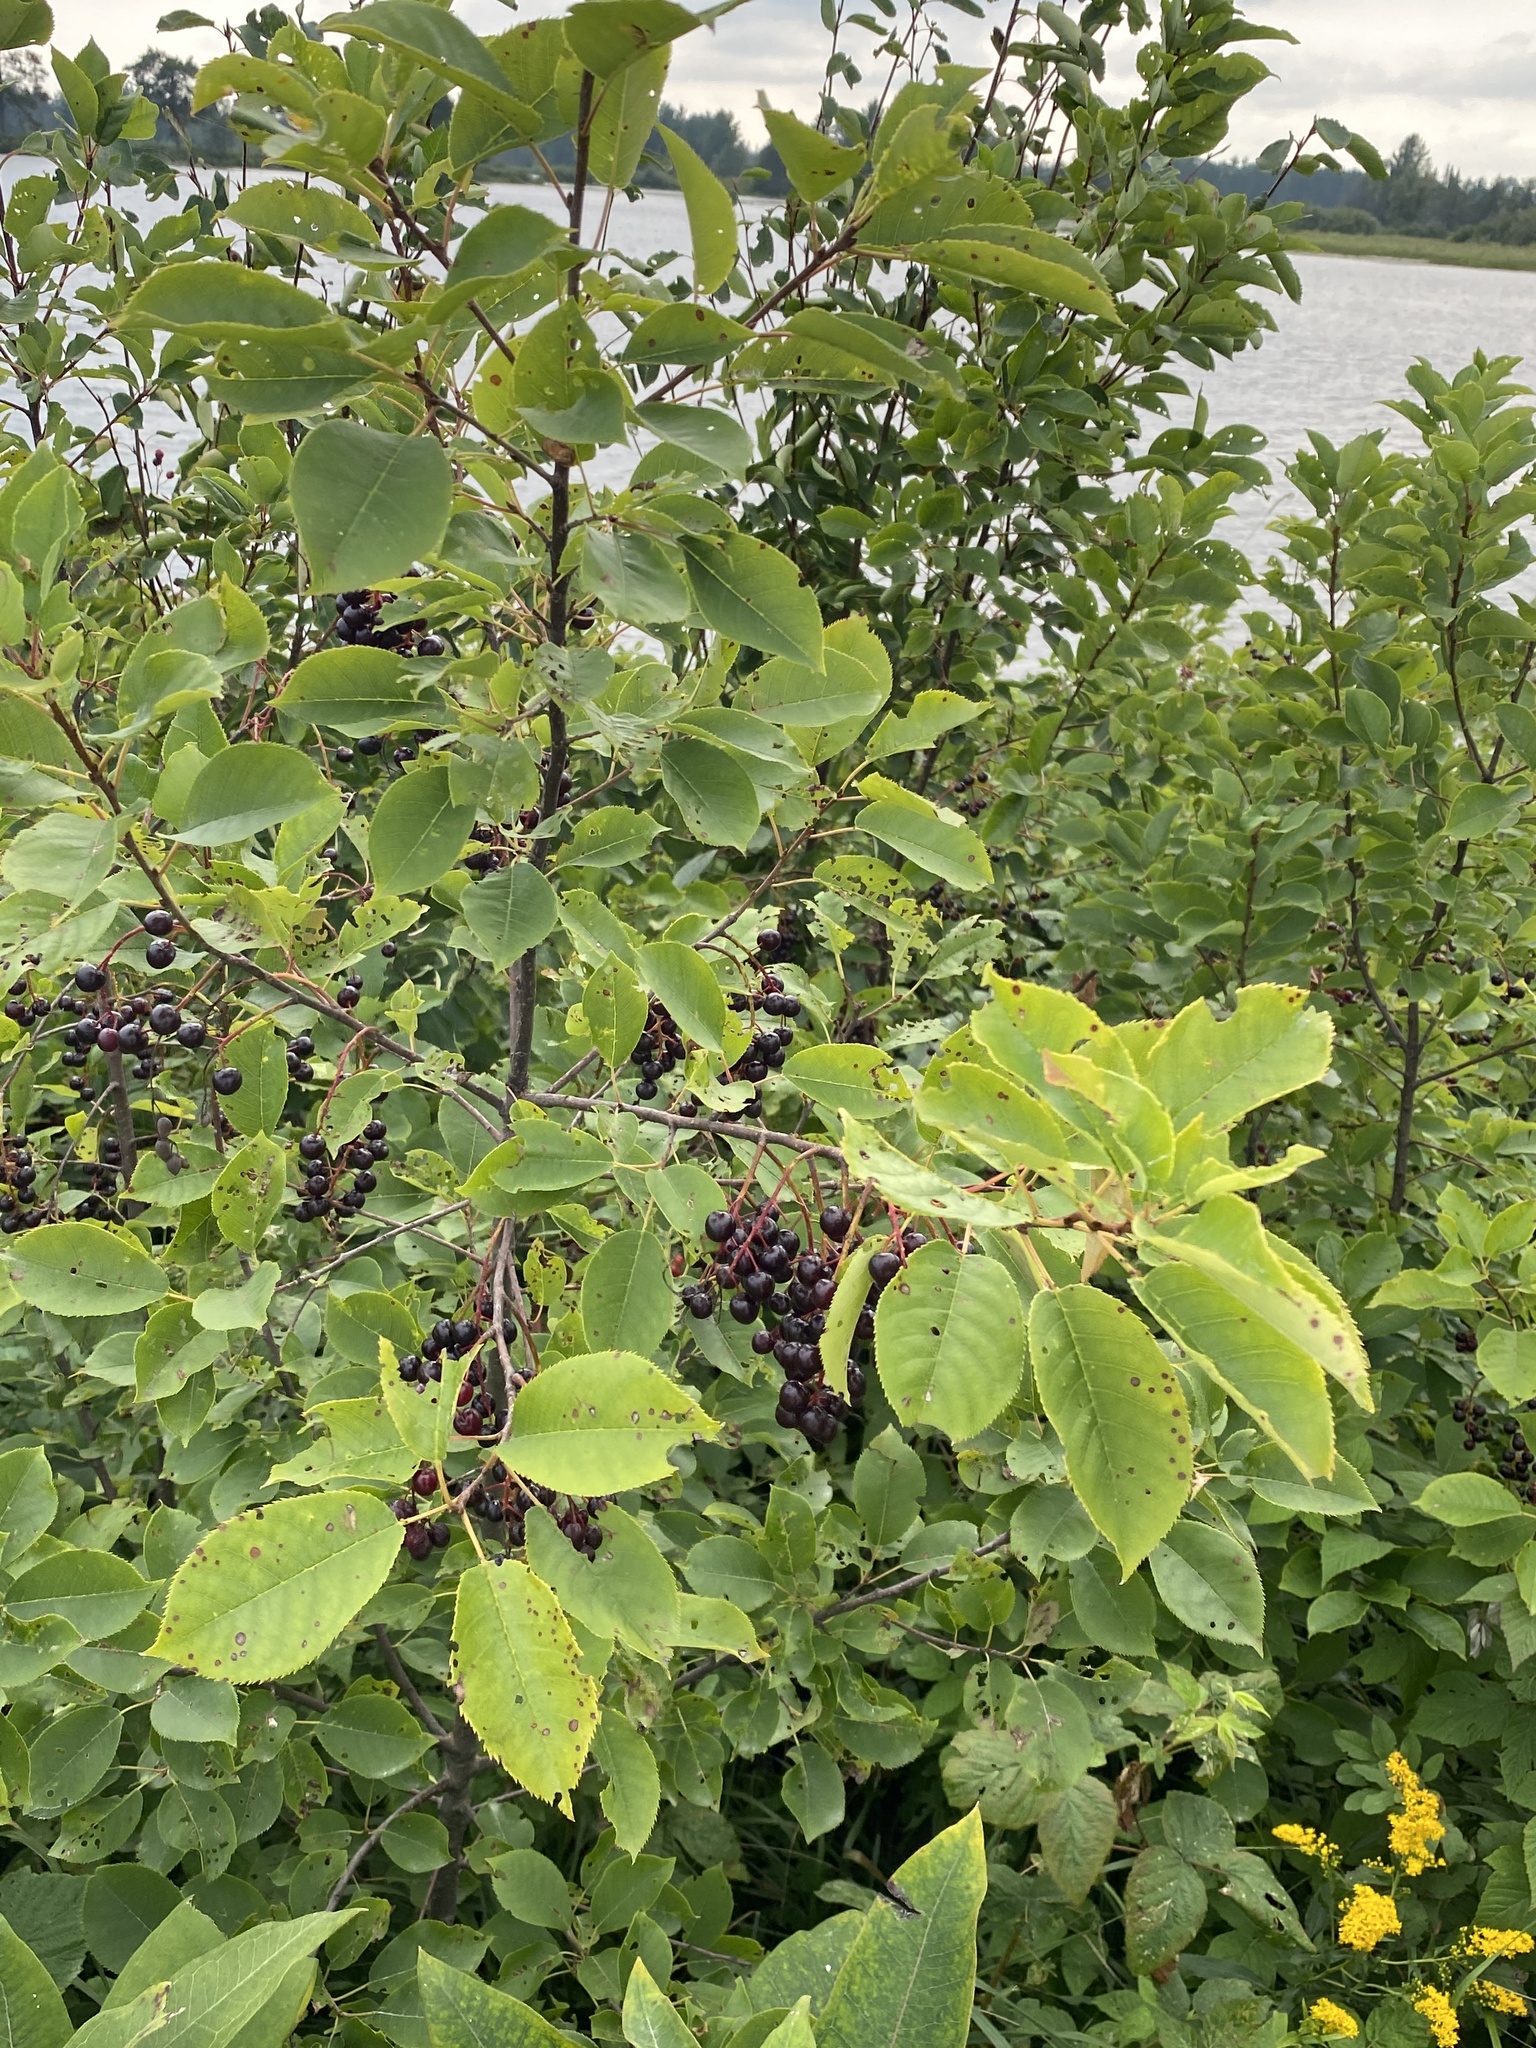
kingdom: Plantae
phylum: Tracheophyta
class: Magnoliopsida
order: Rosales
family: Rosaceae
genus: Prunus
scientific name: Prunus virginiana
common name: Chokecherry
